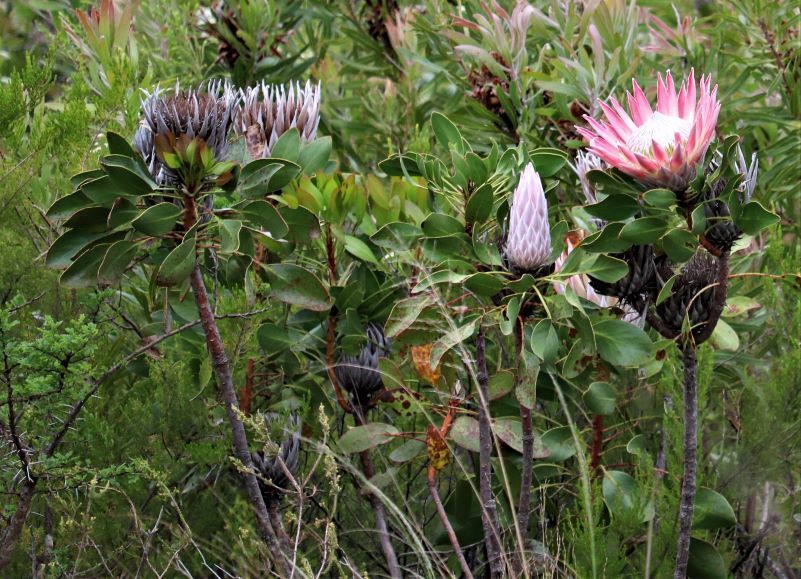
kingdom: Plantae
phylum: Tracheophyta
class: Magnoliopsida
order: Proteales
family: Proteaceae
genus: Protea
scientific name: Protea cynaroides
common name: King protea
